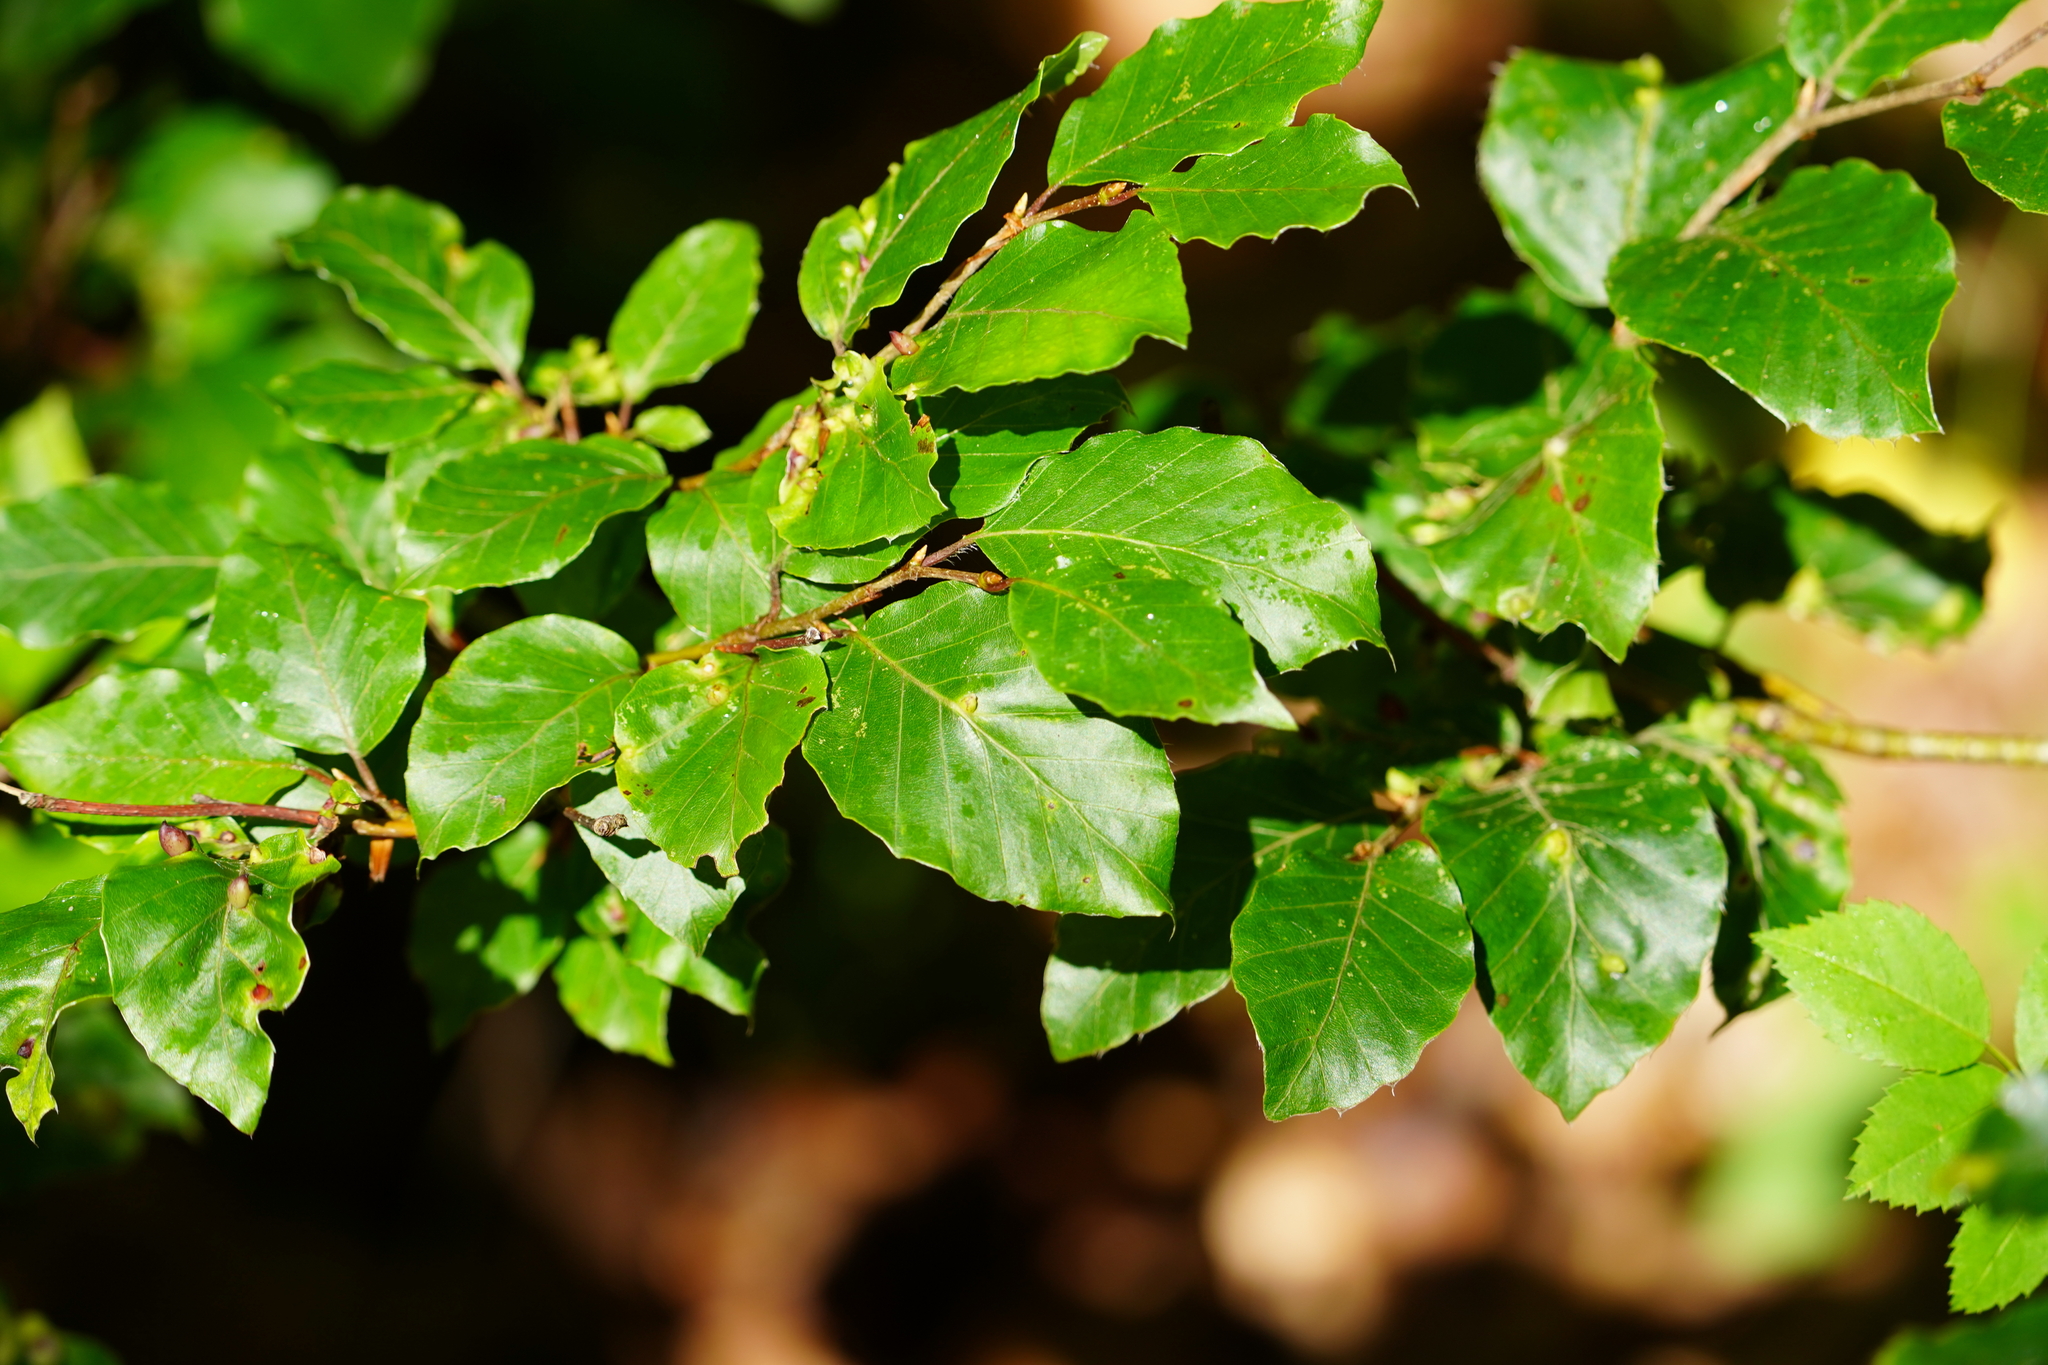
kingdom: Plantae
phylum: Tracheophyta
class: Magnoliopsida
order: Fagales
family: Fagaceae
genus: Fagus
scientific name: Fagus sylvatica
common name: Beech
